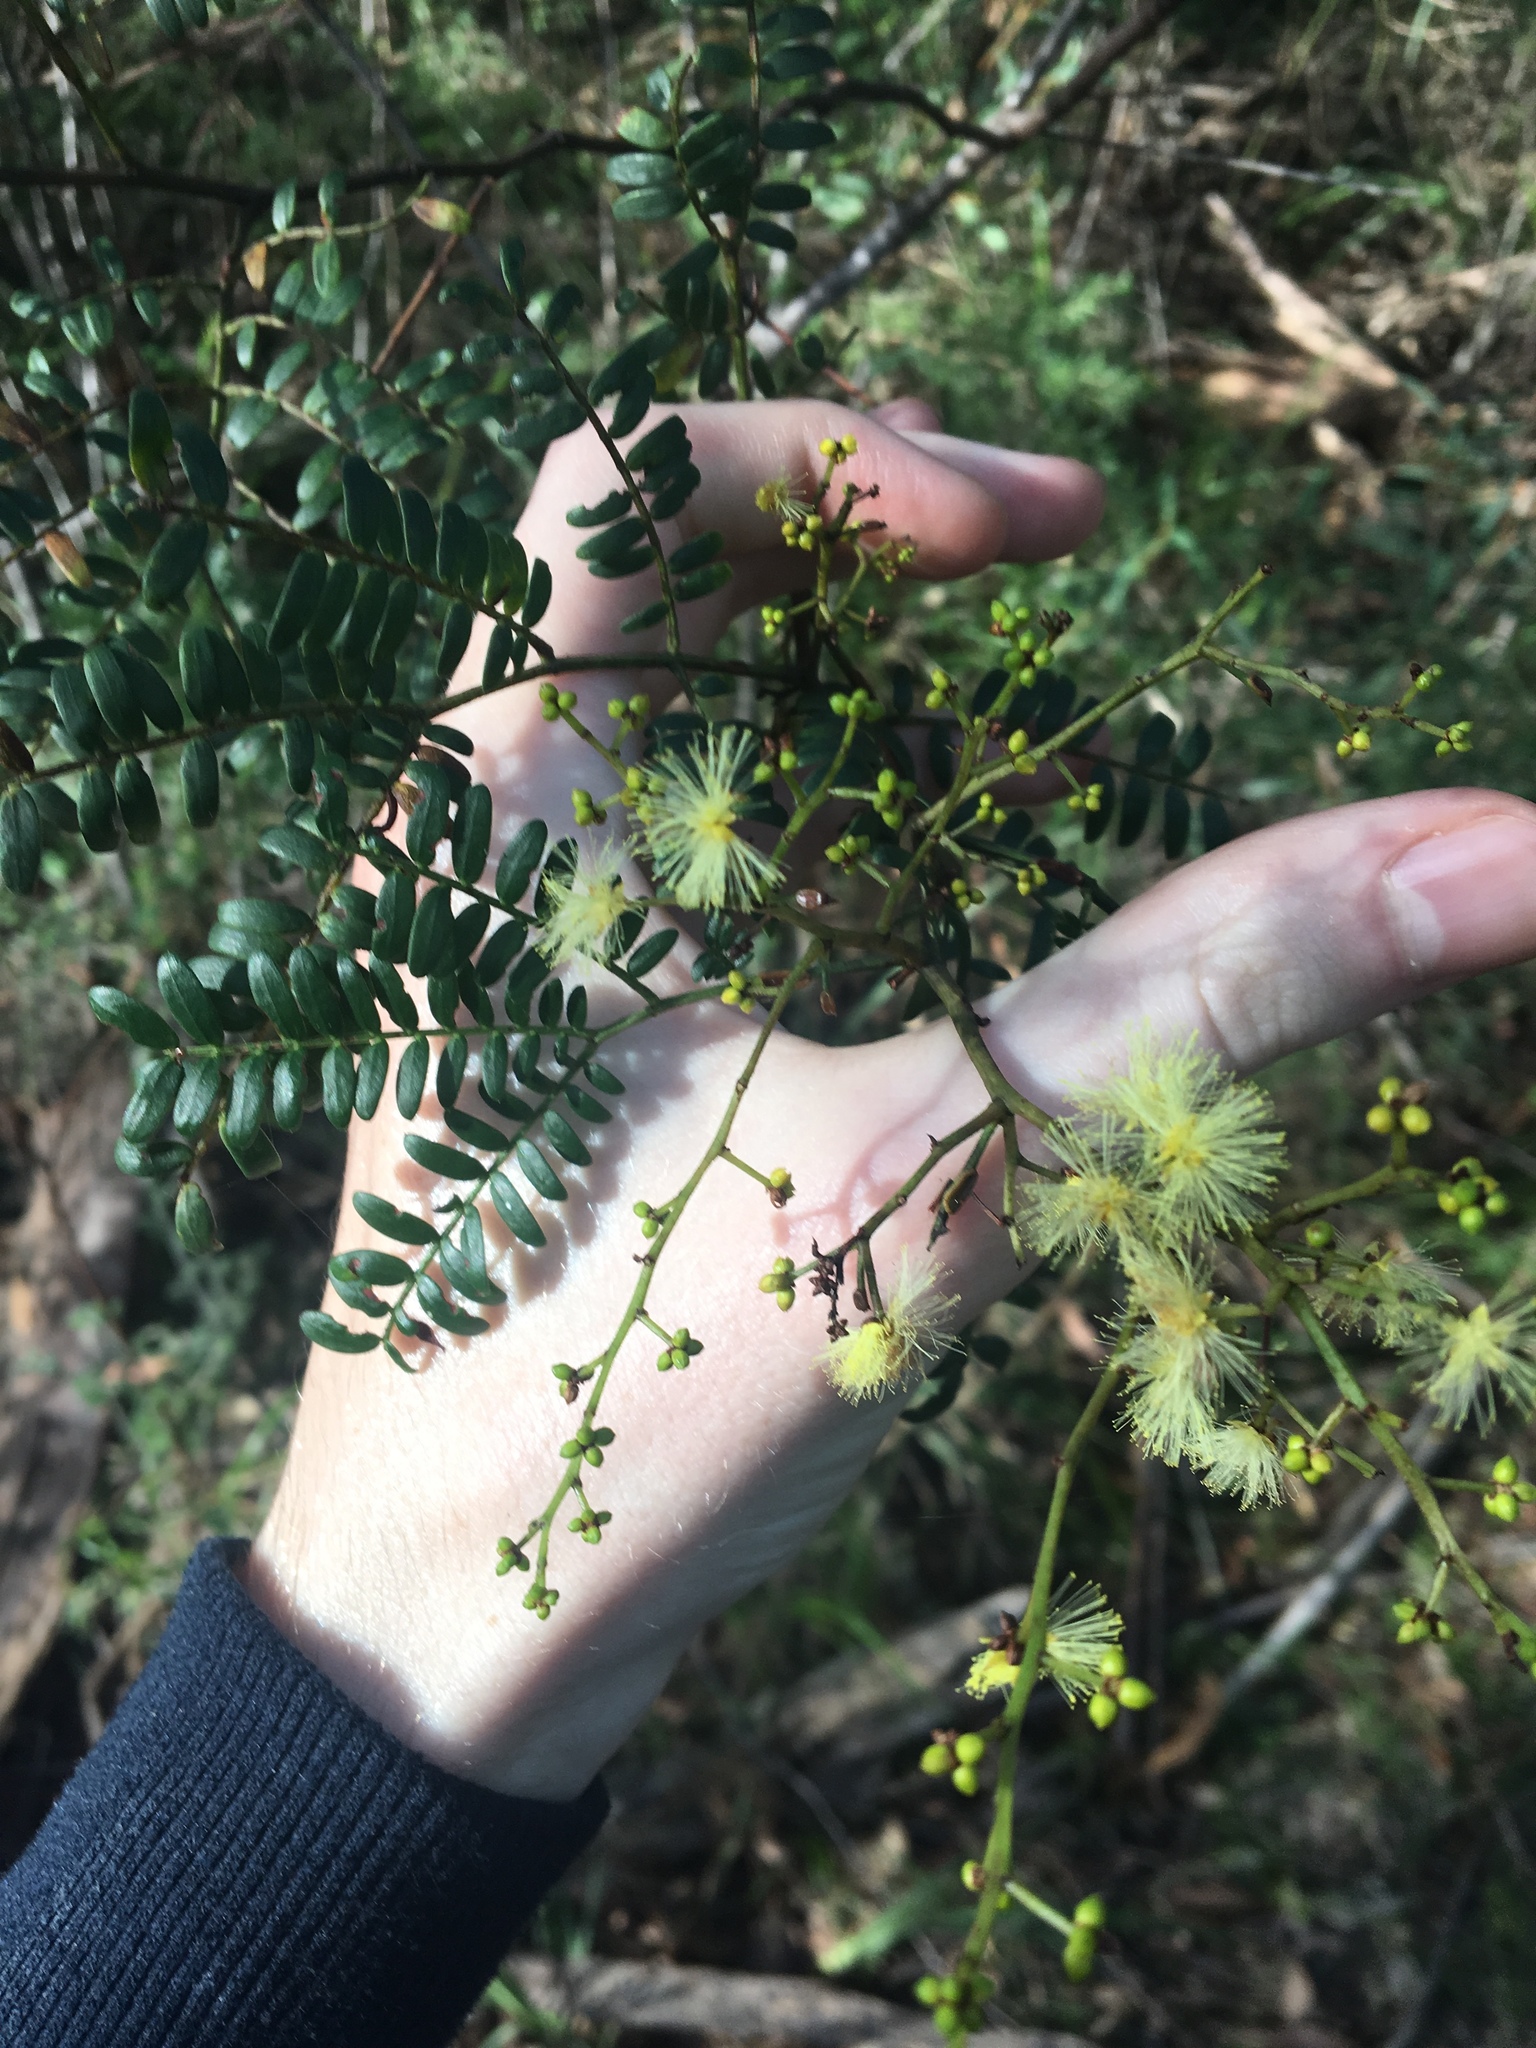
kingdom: Plantae
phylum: Tracheophyta
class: Magnoliopsida
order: Fabales
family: Fabaceae
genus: Acacia
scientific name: Acacia terminalis
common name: Cedar wattle
